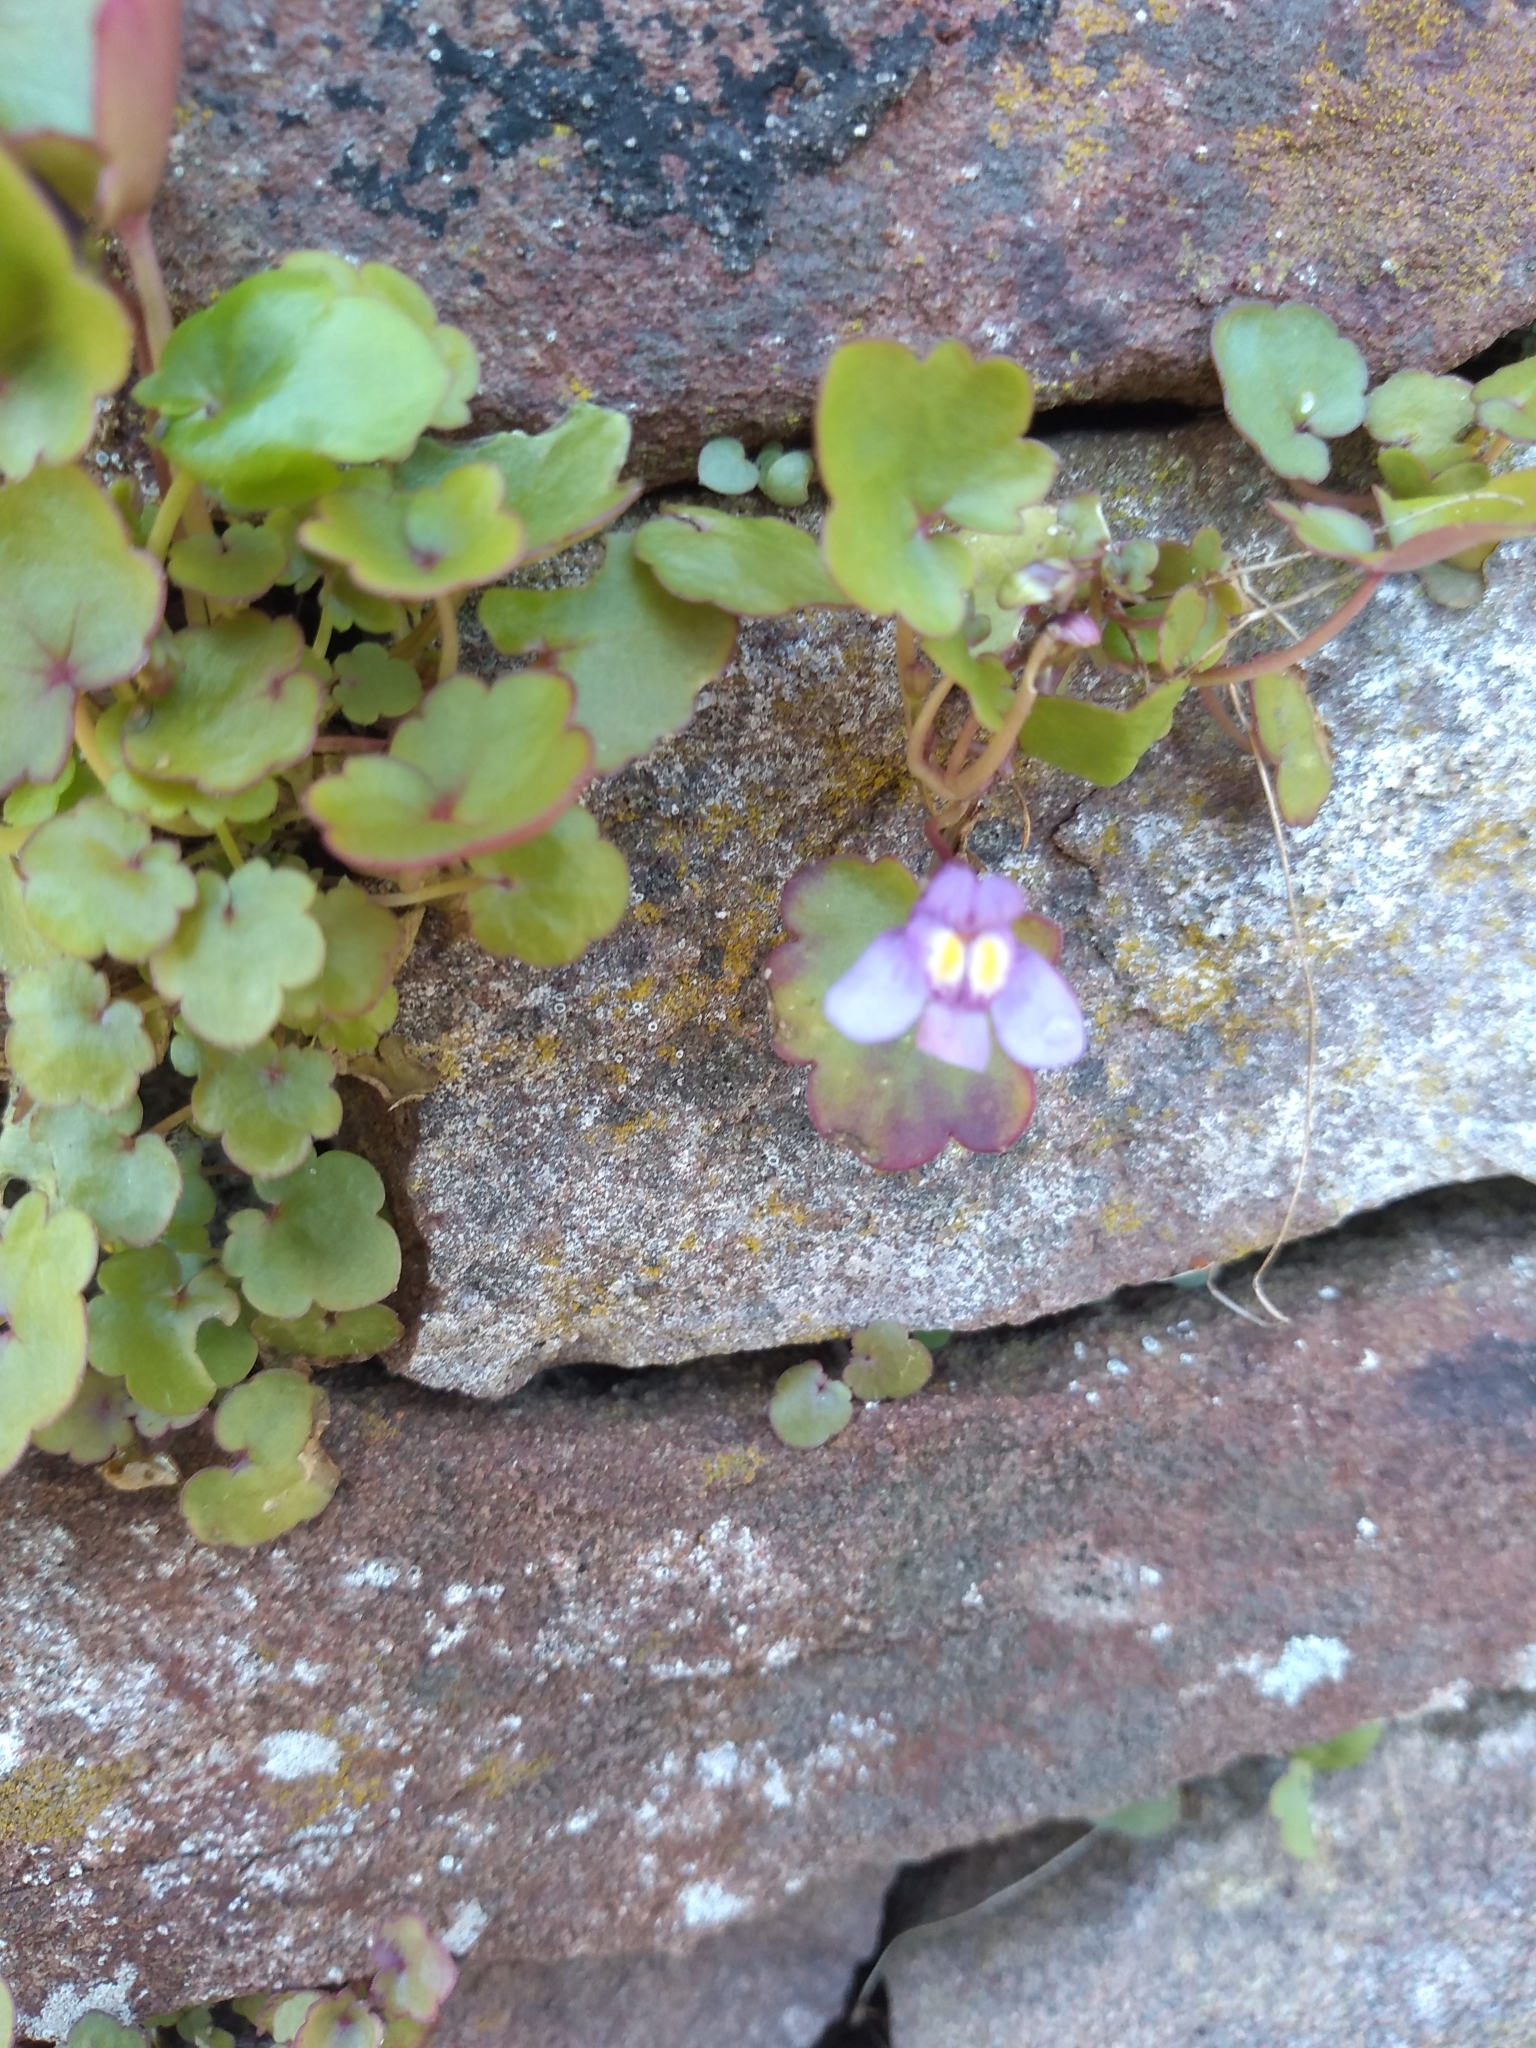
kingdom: Plantae
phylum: Tracheophyta
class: Magnoliopsida
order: Lamiales
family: Plantaginaceae
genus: Cymbalaria
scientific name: Cymbalaria muralis
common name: Ivy-leaved toadflax
